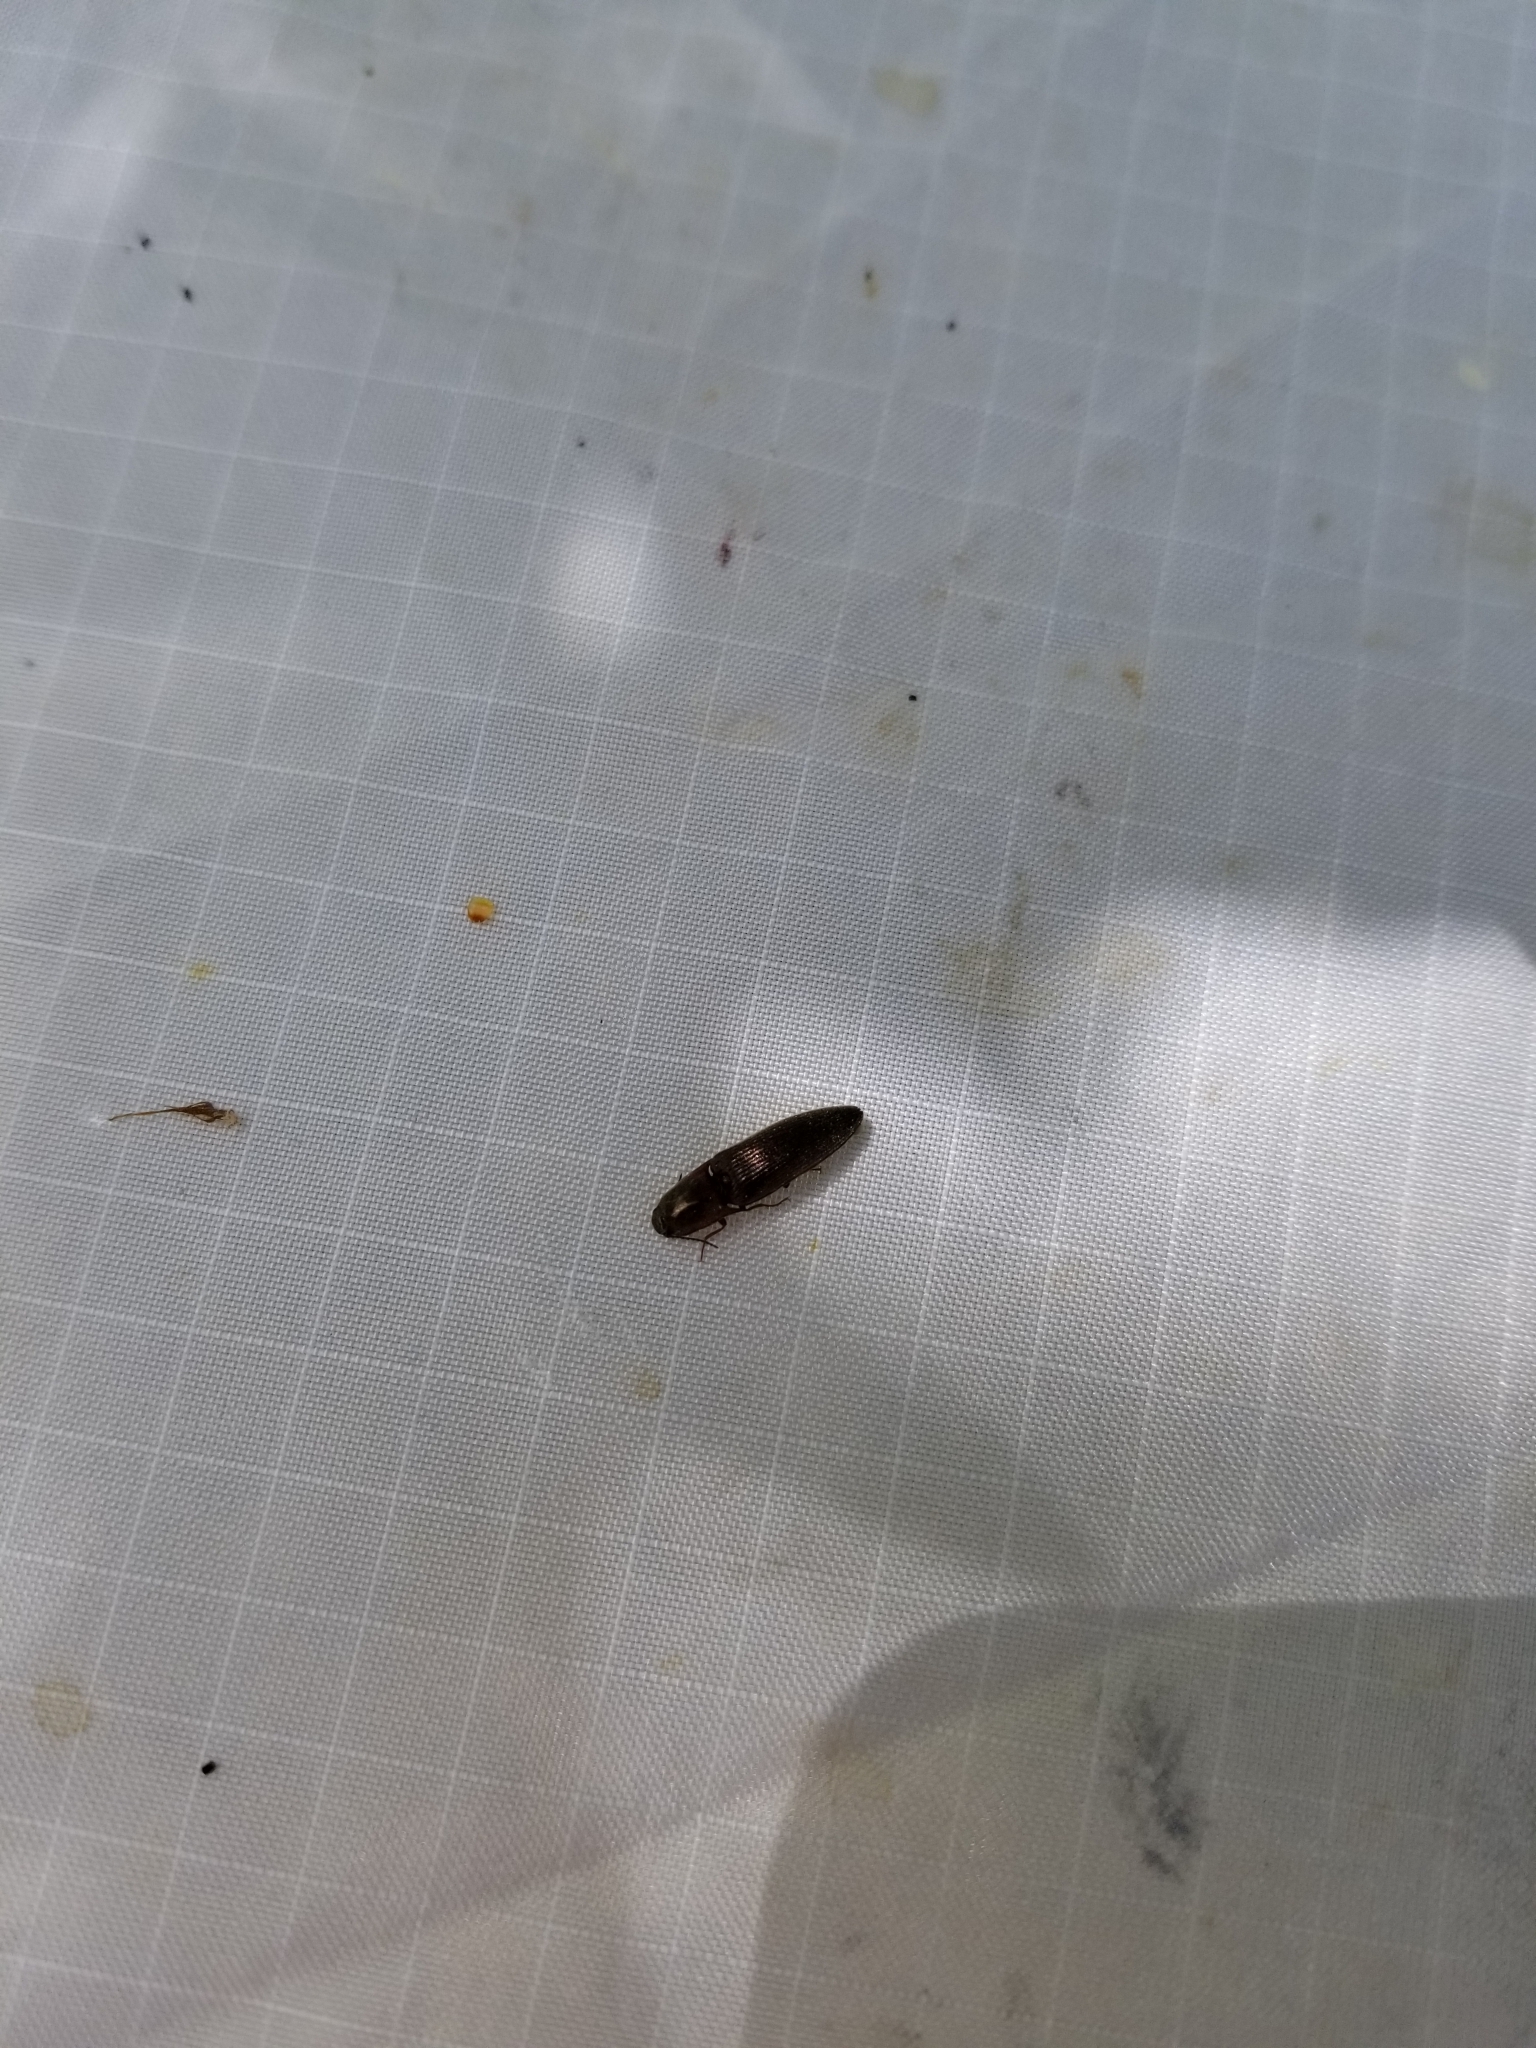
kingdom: Animalia
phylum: Arthropoda
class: Insecta
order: Coleoptera
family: Elateridae
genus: Sericus
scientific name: Sericus viridanus
